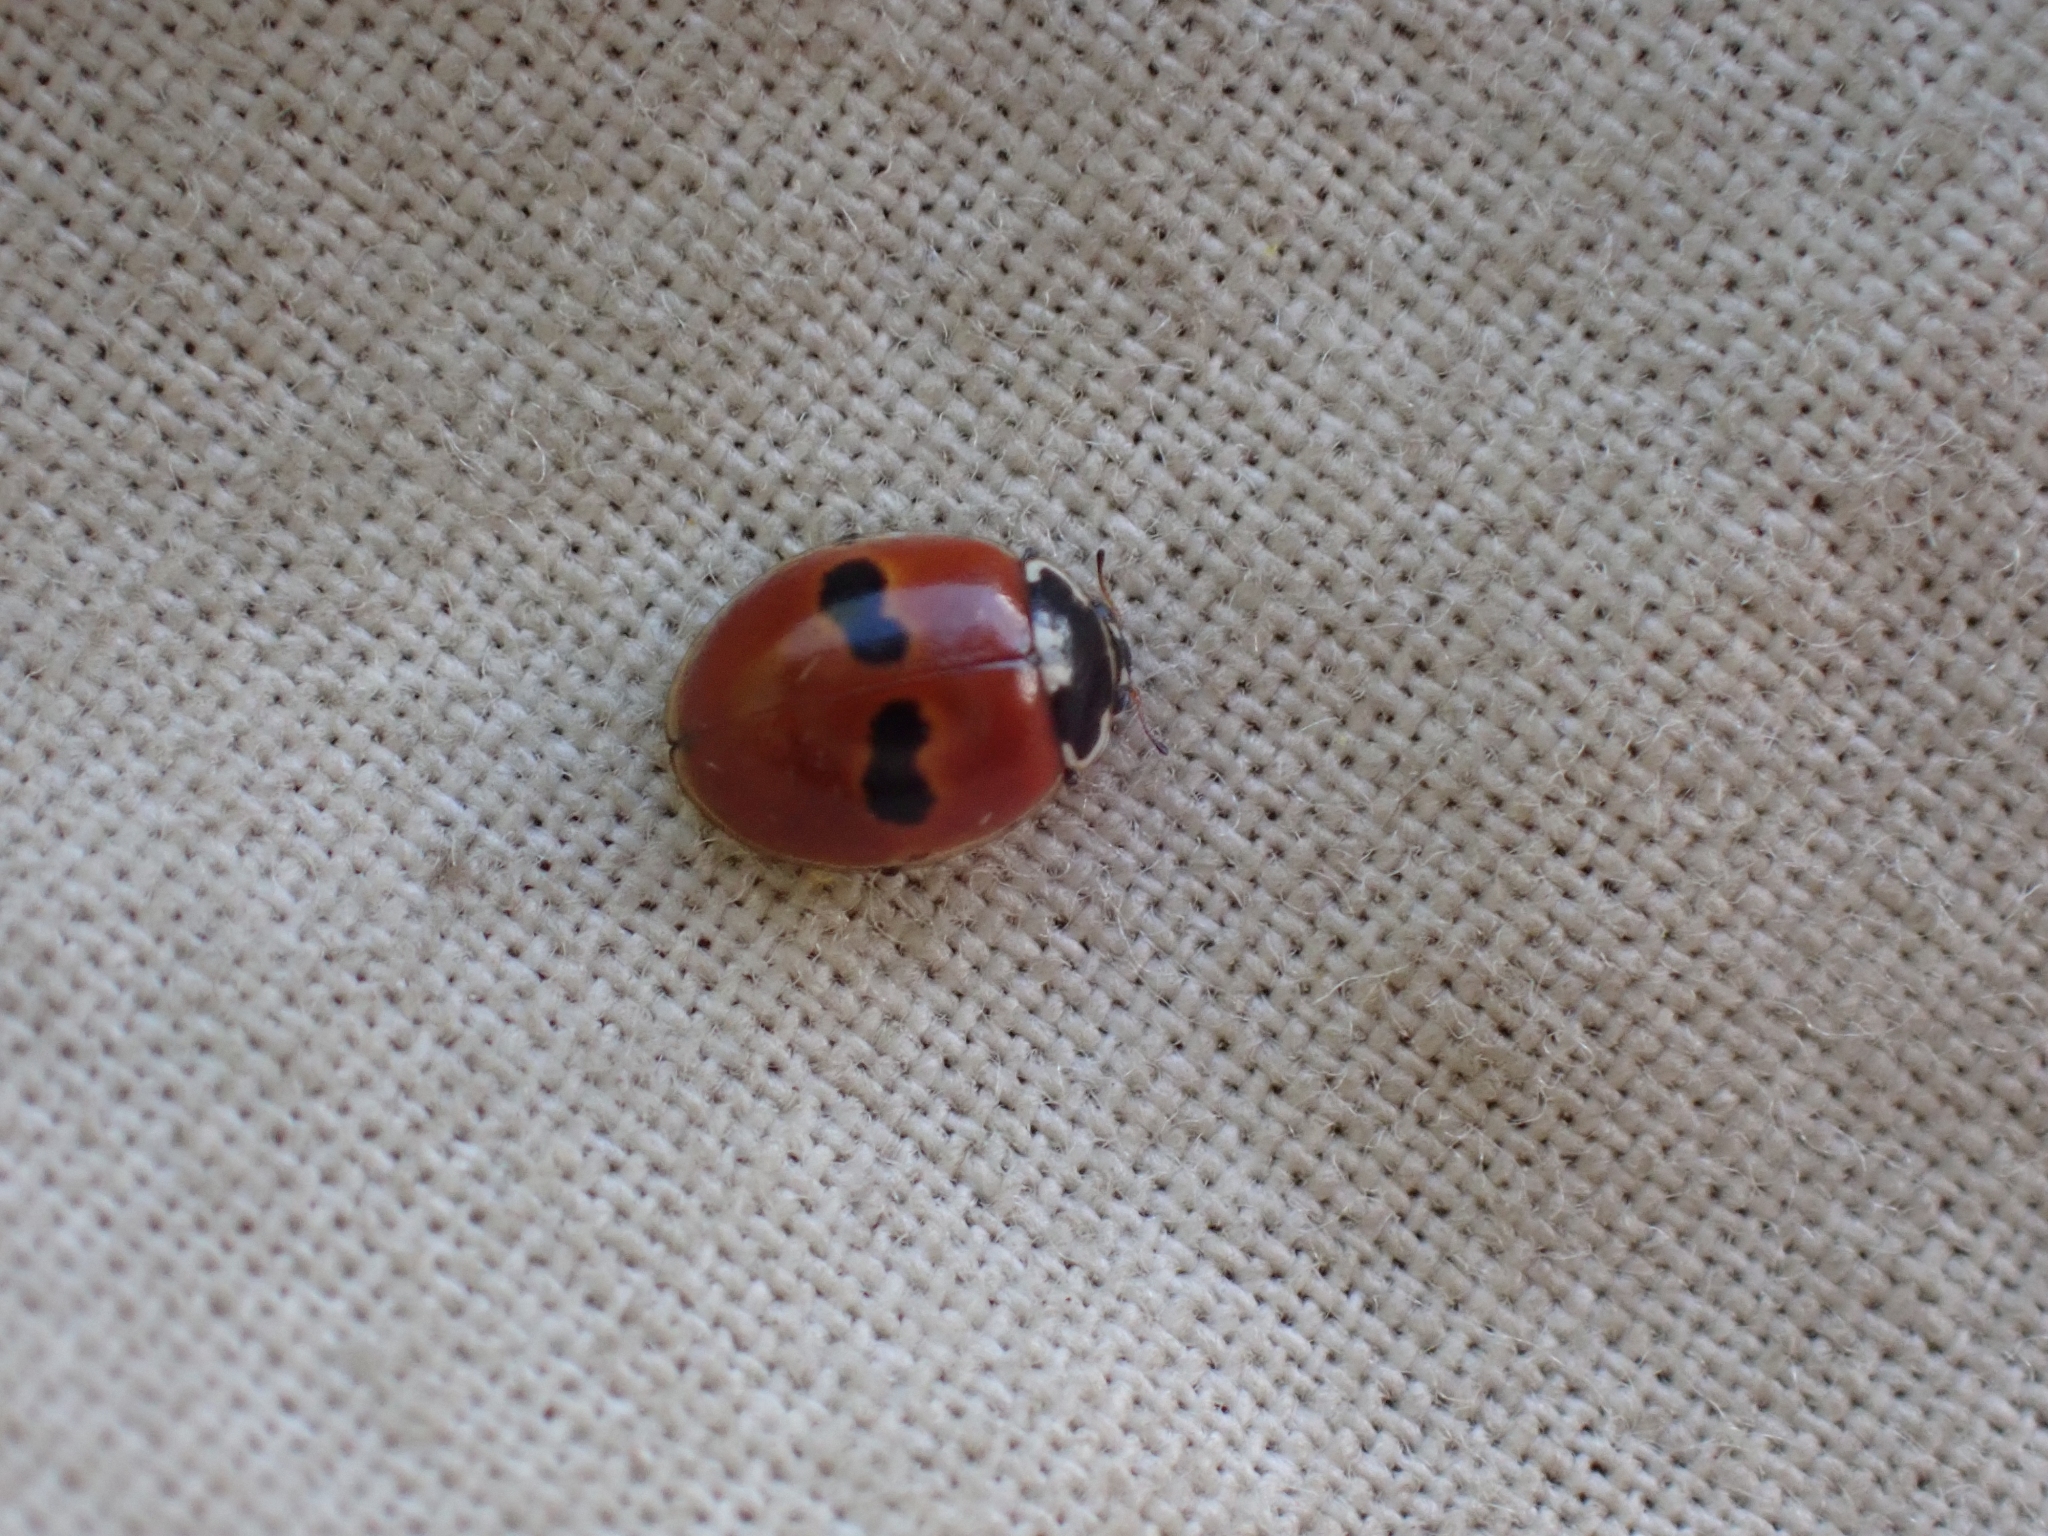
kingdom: Animalia
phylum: Arthropoda
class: Insecta
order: Coleoptera
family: Coccinellidae
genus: Adalia
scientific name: Adalia bipunctata
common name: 2-spot ladybird
